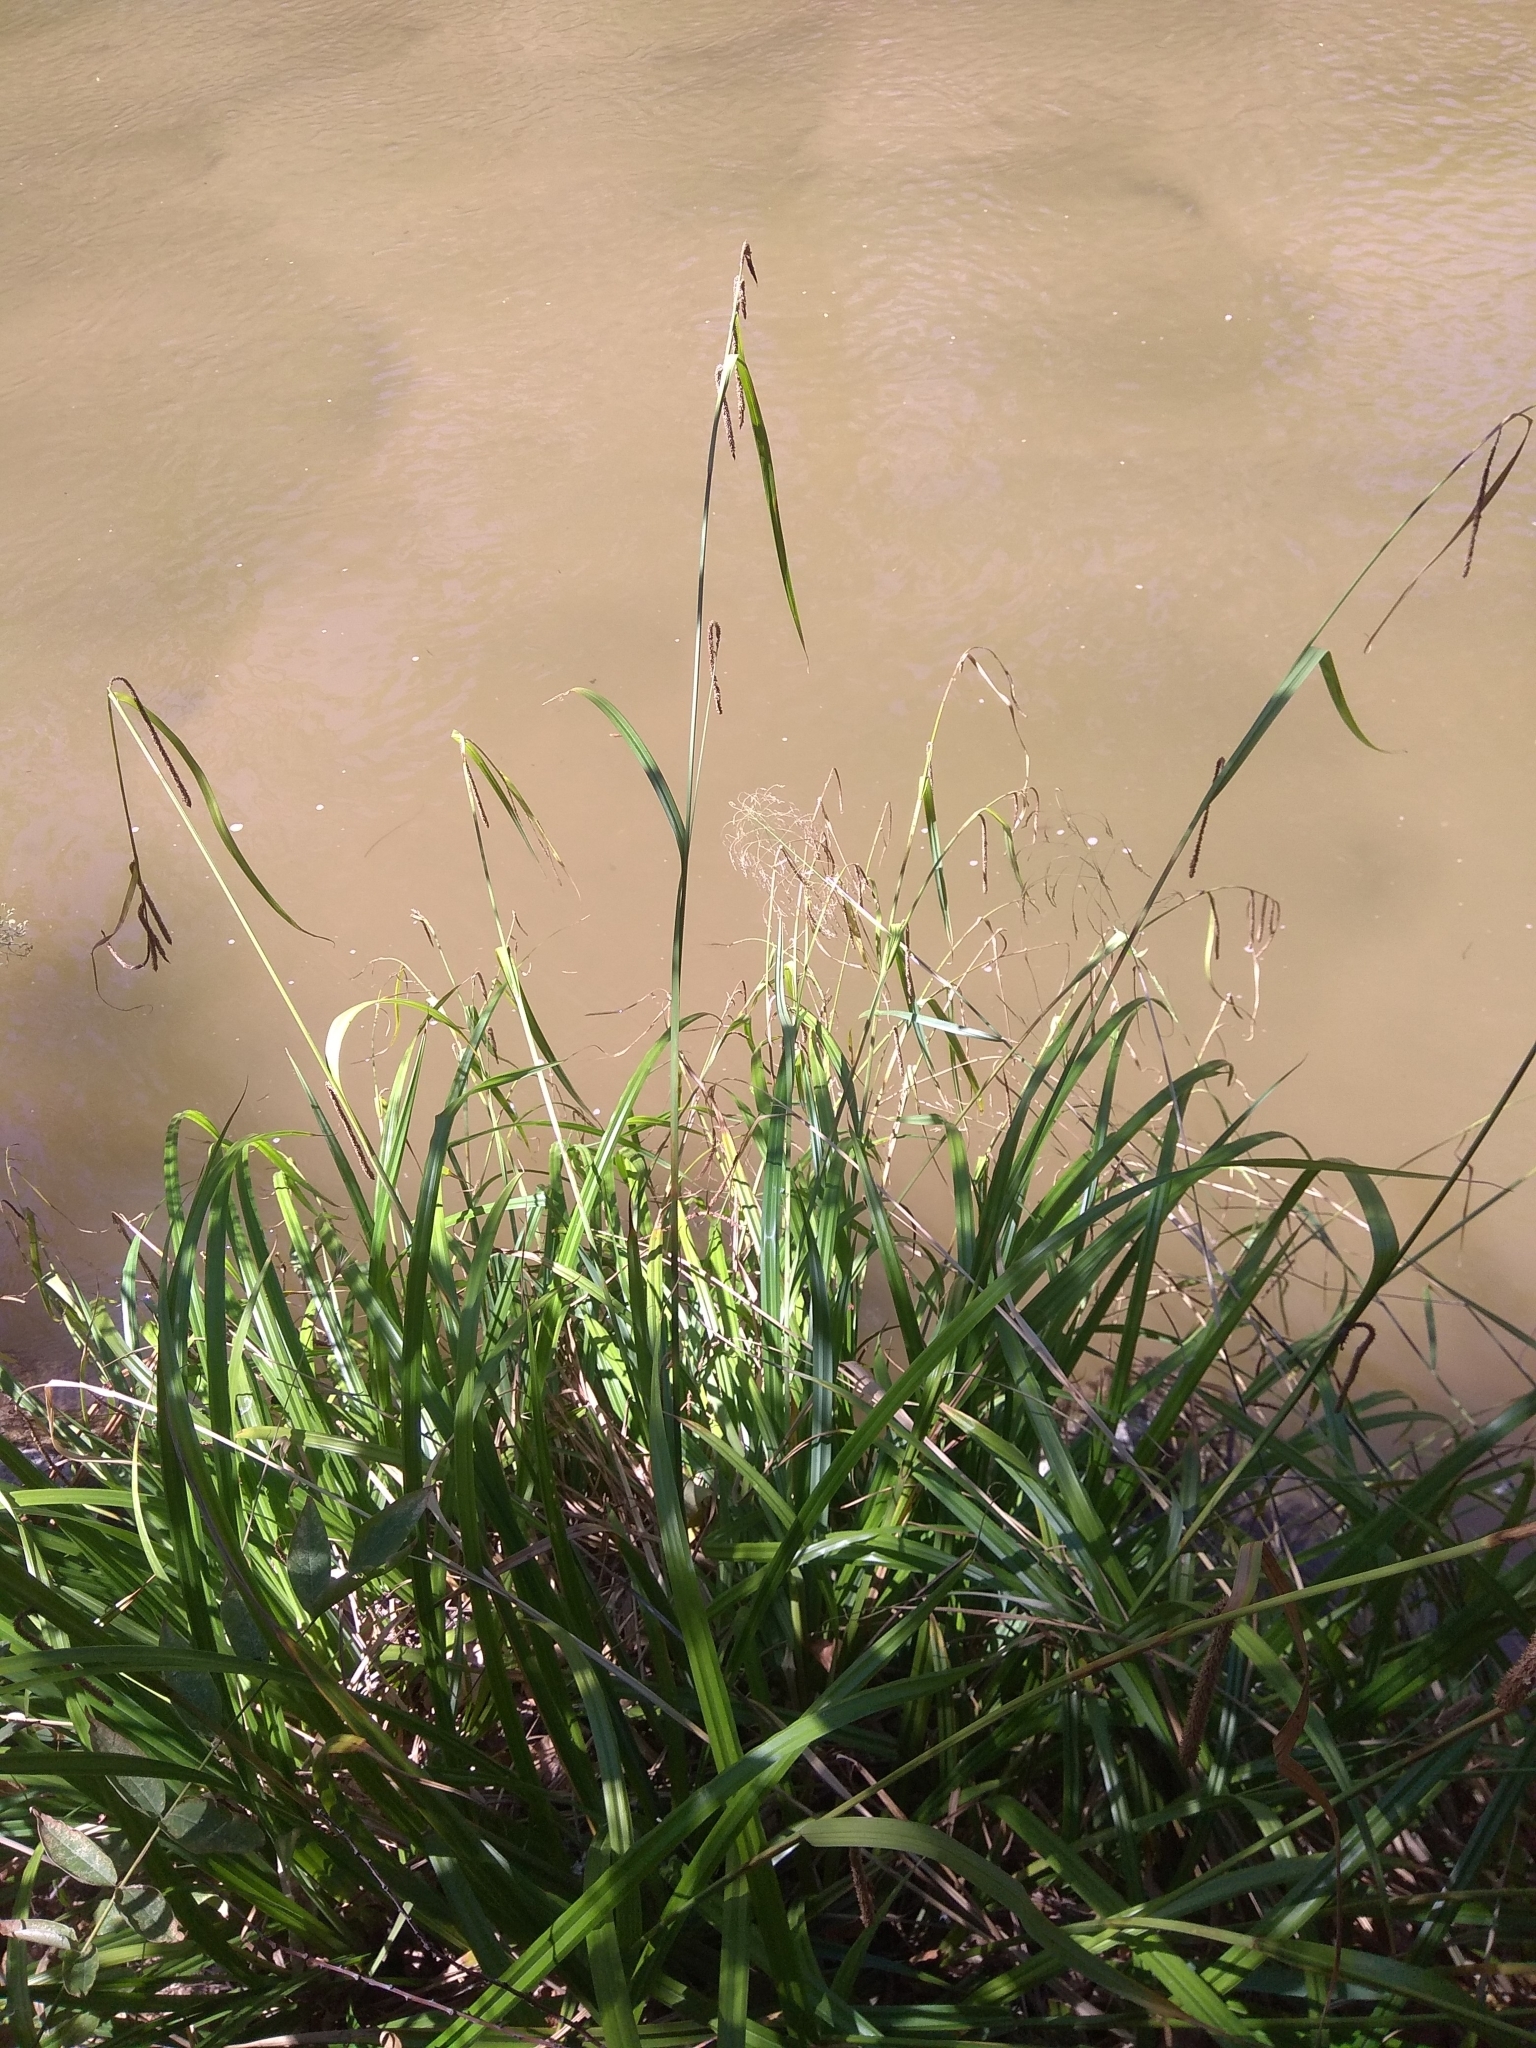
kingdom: Plantae
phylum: Tracheophyta
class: Liliopsida
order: Poales
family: Cyperaceae
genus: Carex
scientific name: Carex pendula
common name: Pendulous sedge
